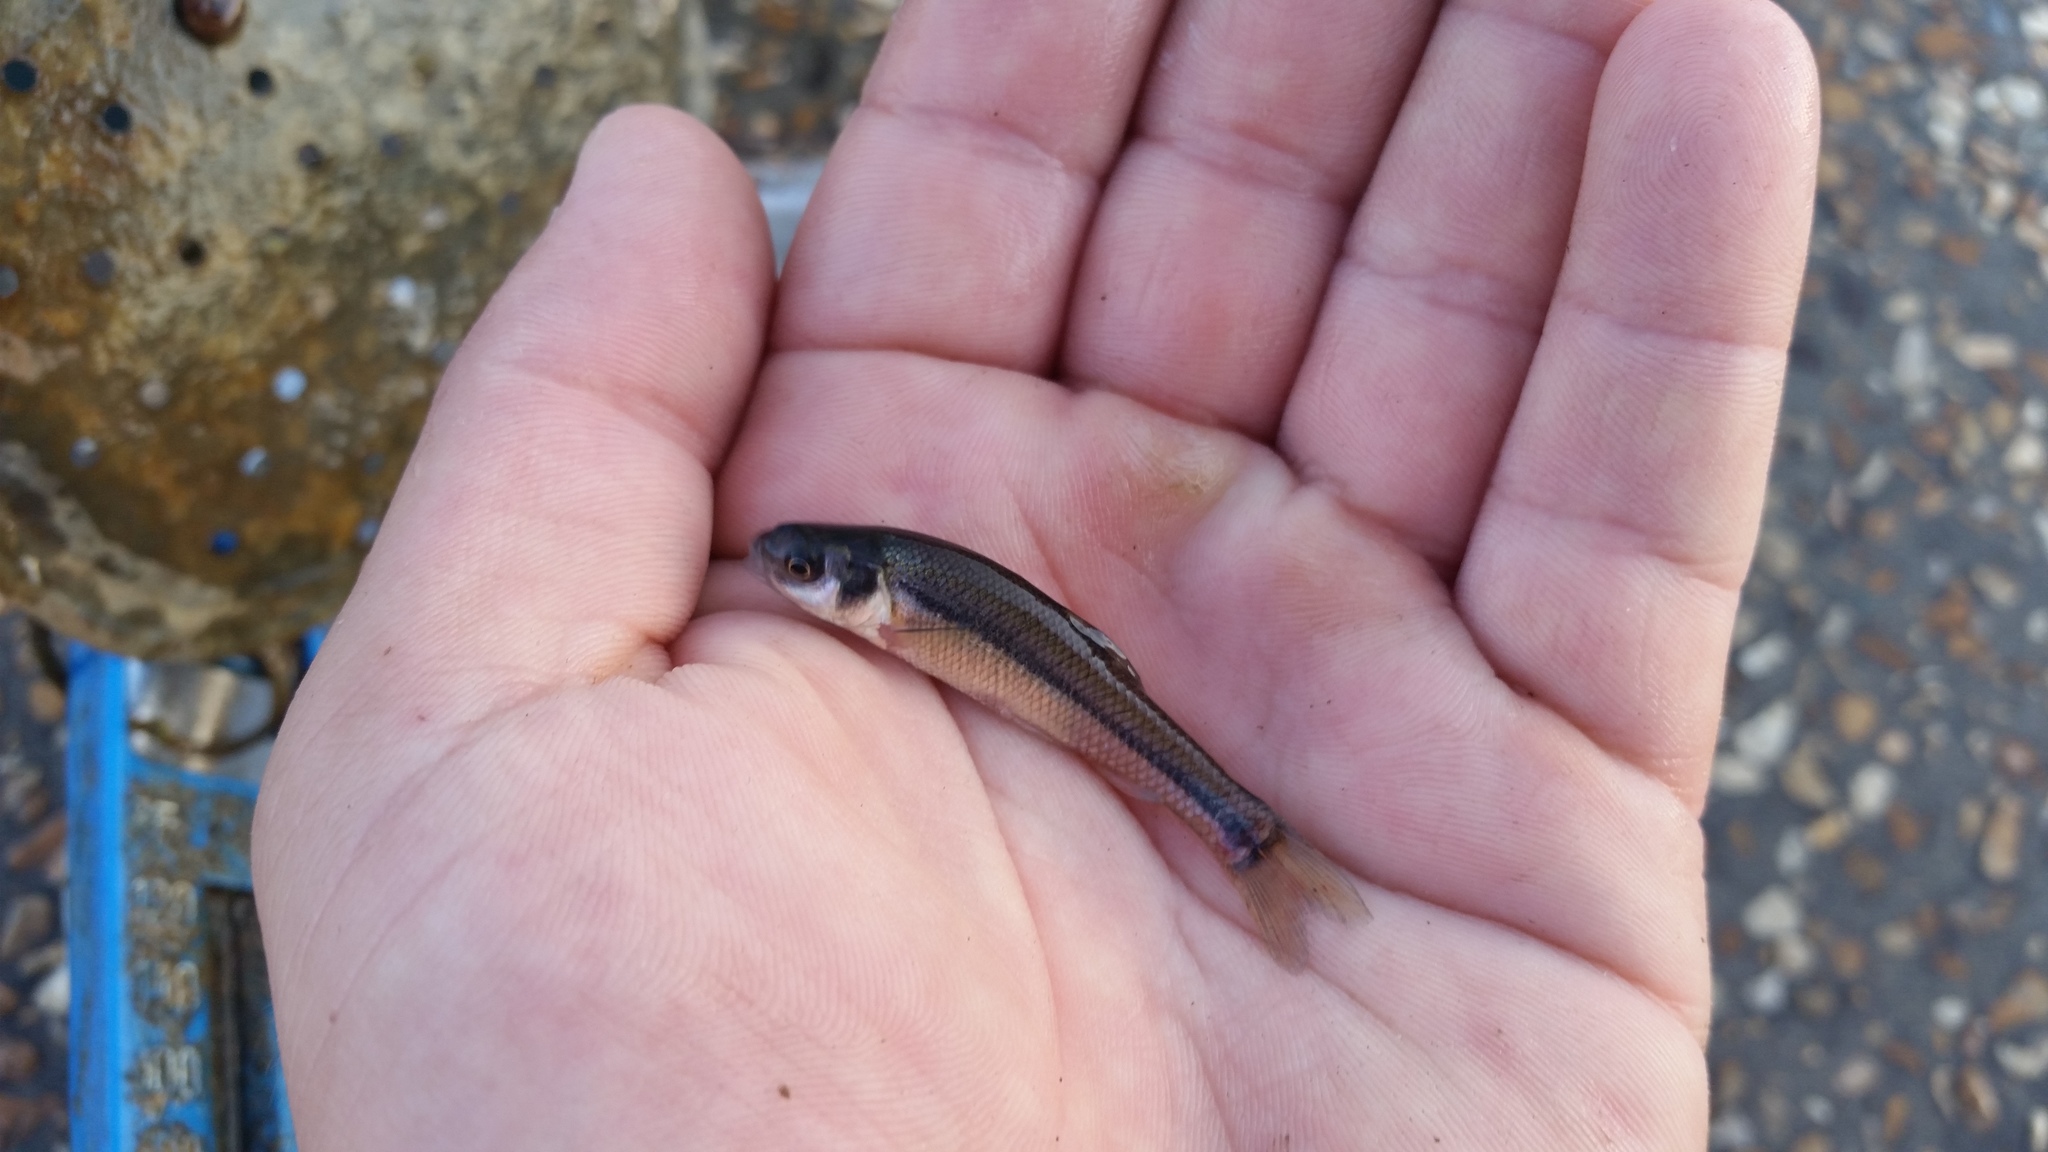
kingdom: Animalia
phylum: Chordata
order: Cypriniformes
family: Cyprinidae
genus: Pimephales
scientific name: Pimephales promelas
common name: Fathead minnow
